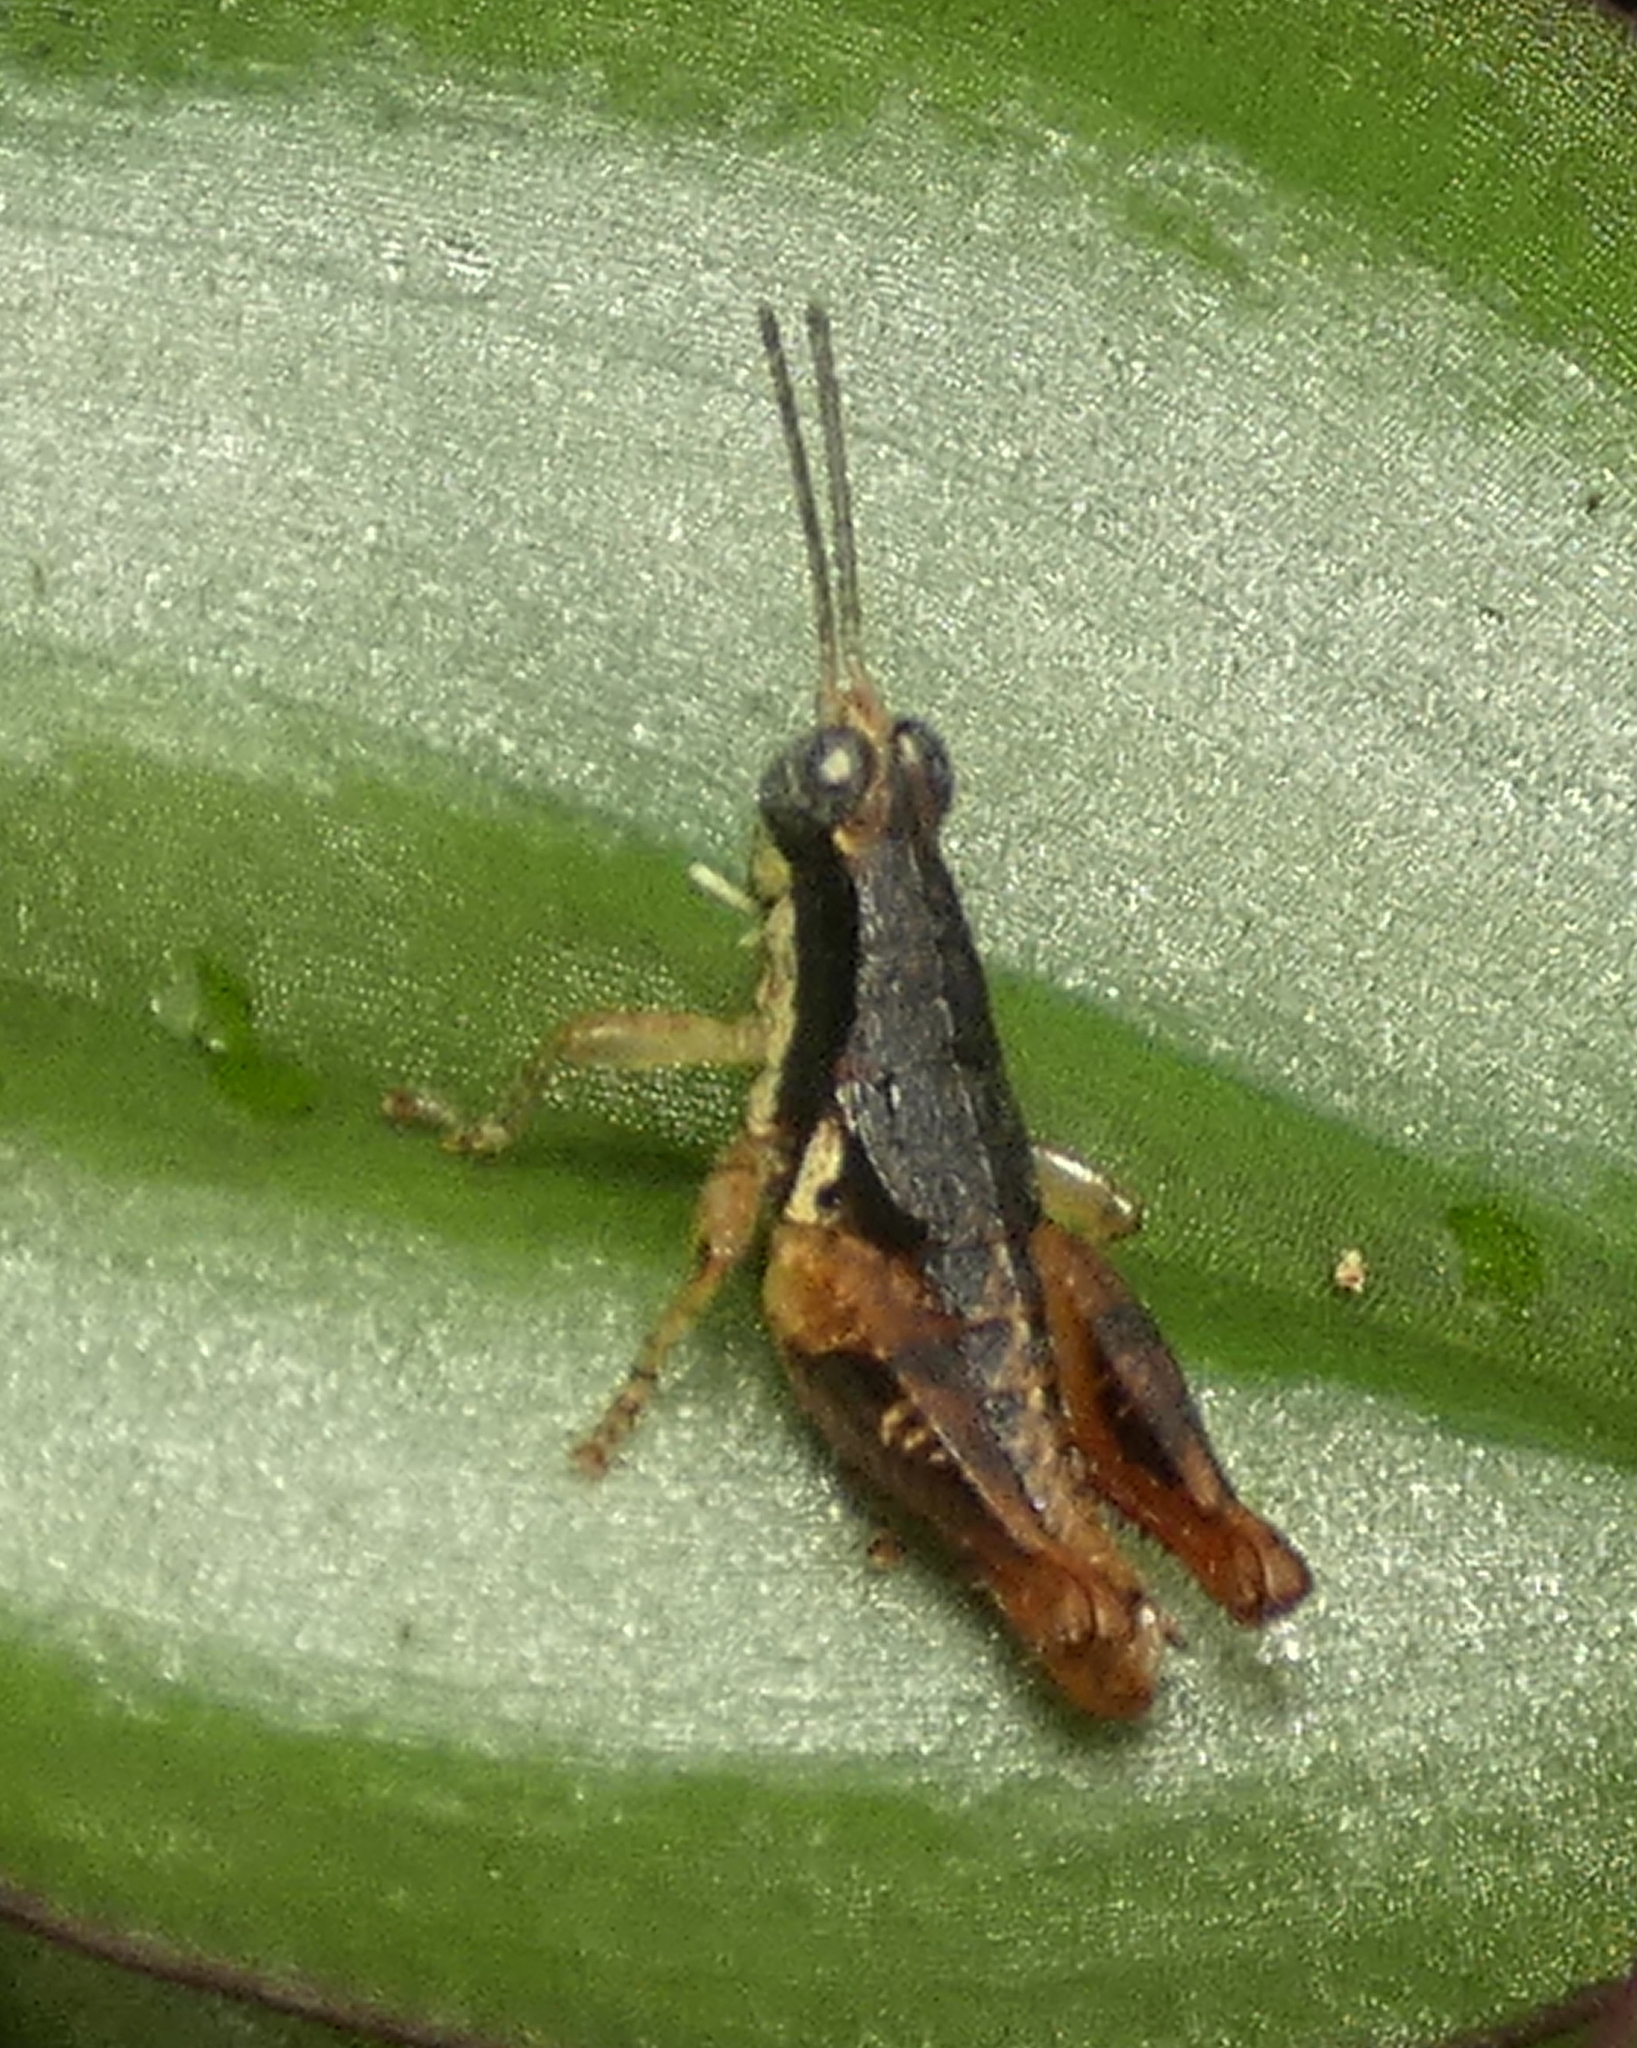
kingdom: Animalia
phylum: Arthropoda
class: Insecta
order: Orthoptera
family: Acrididae
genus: Eujivarus
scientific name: Eujivarus meridionalis
